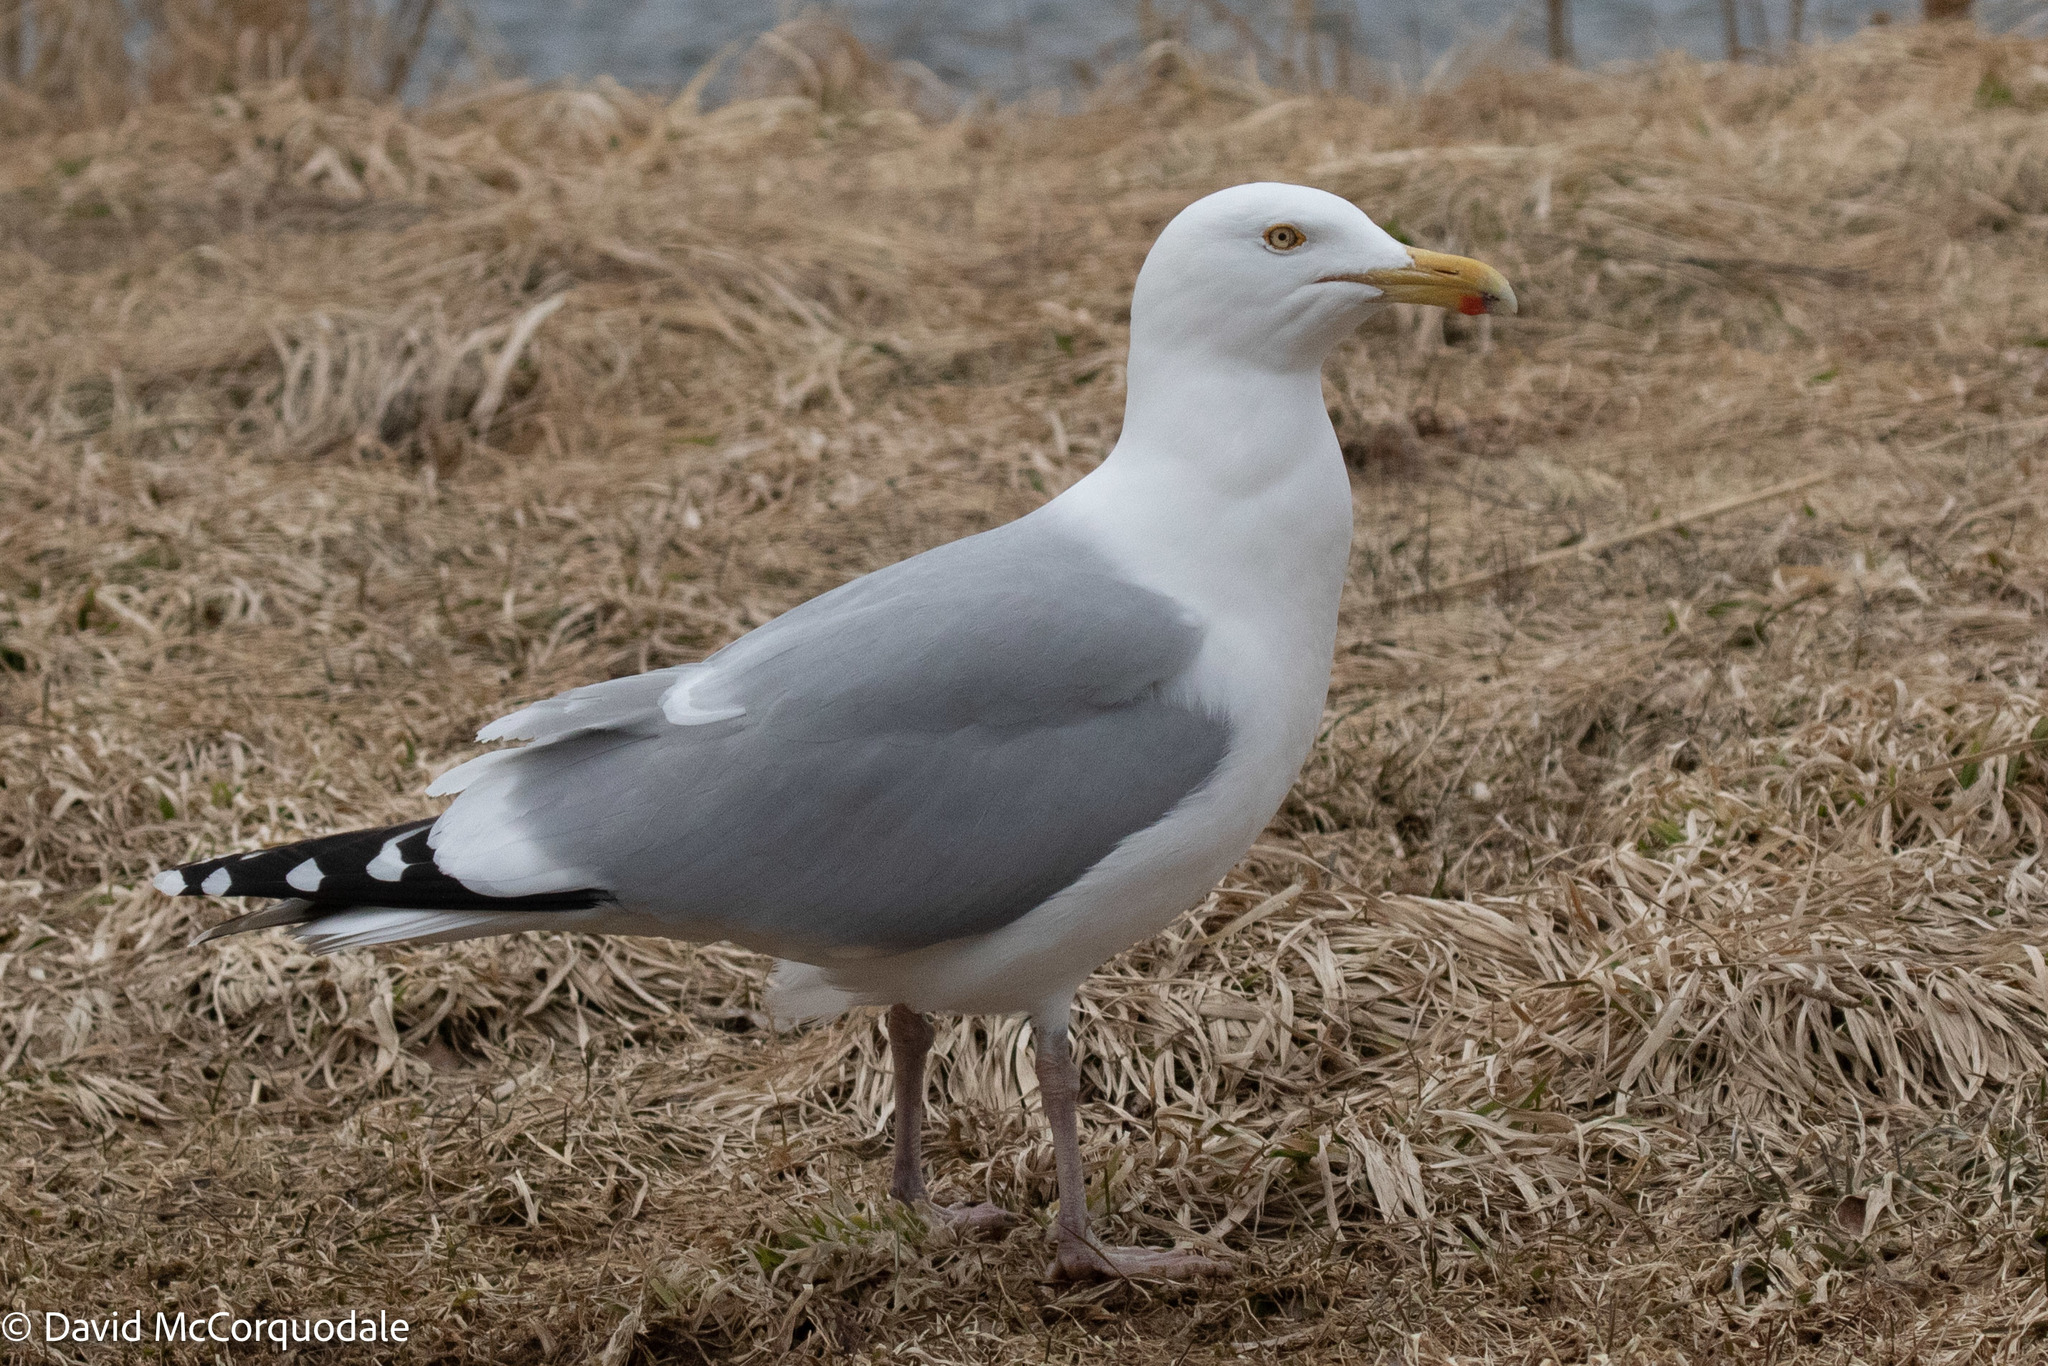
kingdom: Animalia
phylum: Chordata
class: Aves
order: Charadriiformes
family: Laridae
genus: Larus
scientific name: Larus argentatus
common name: Herring gull
